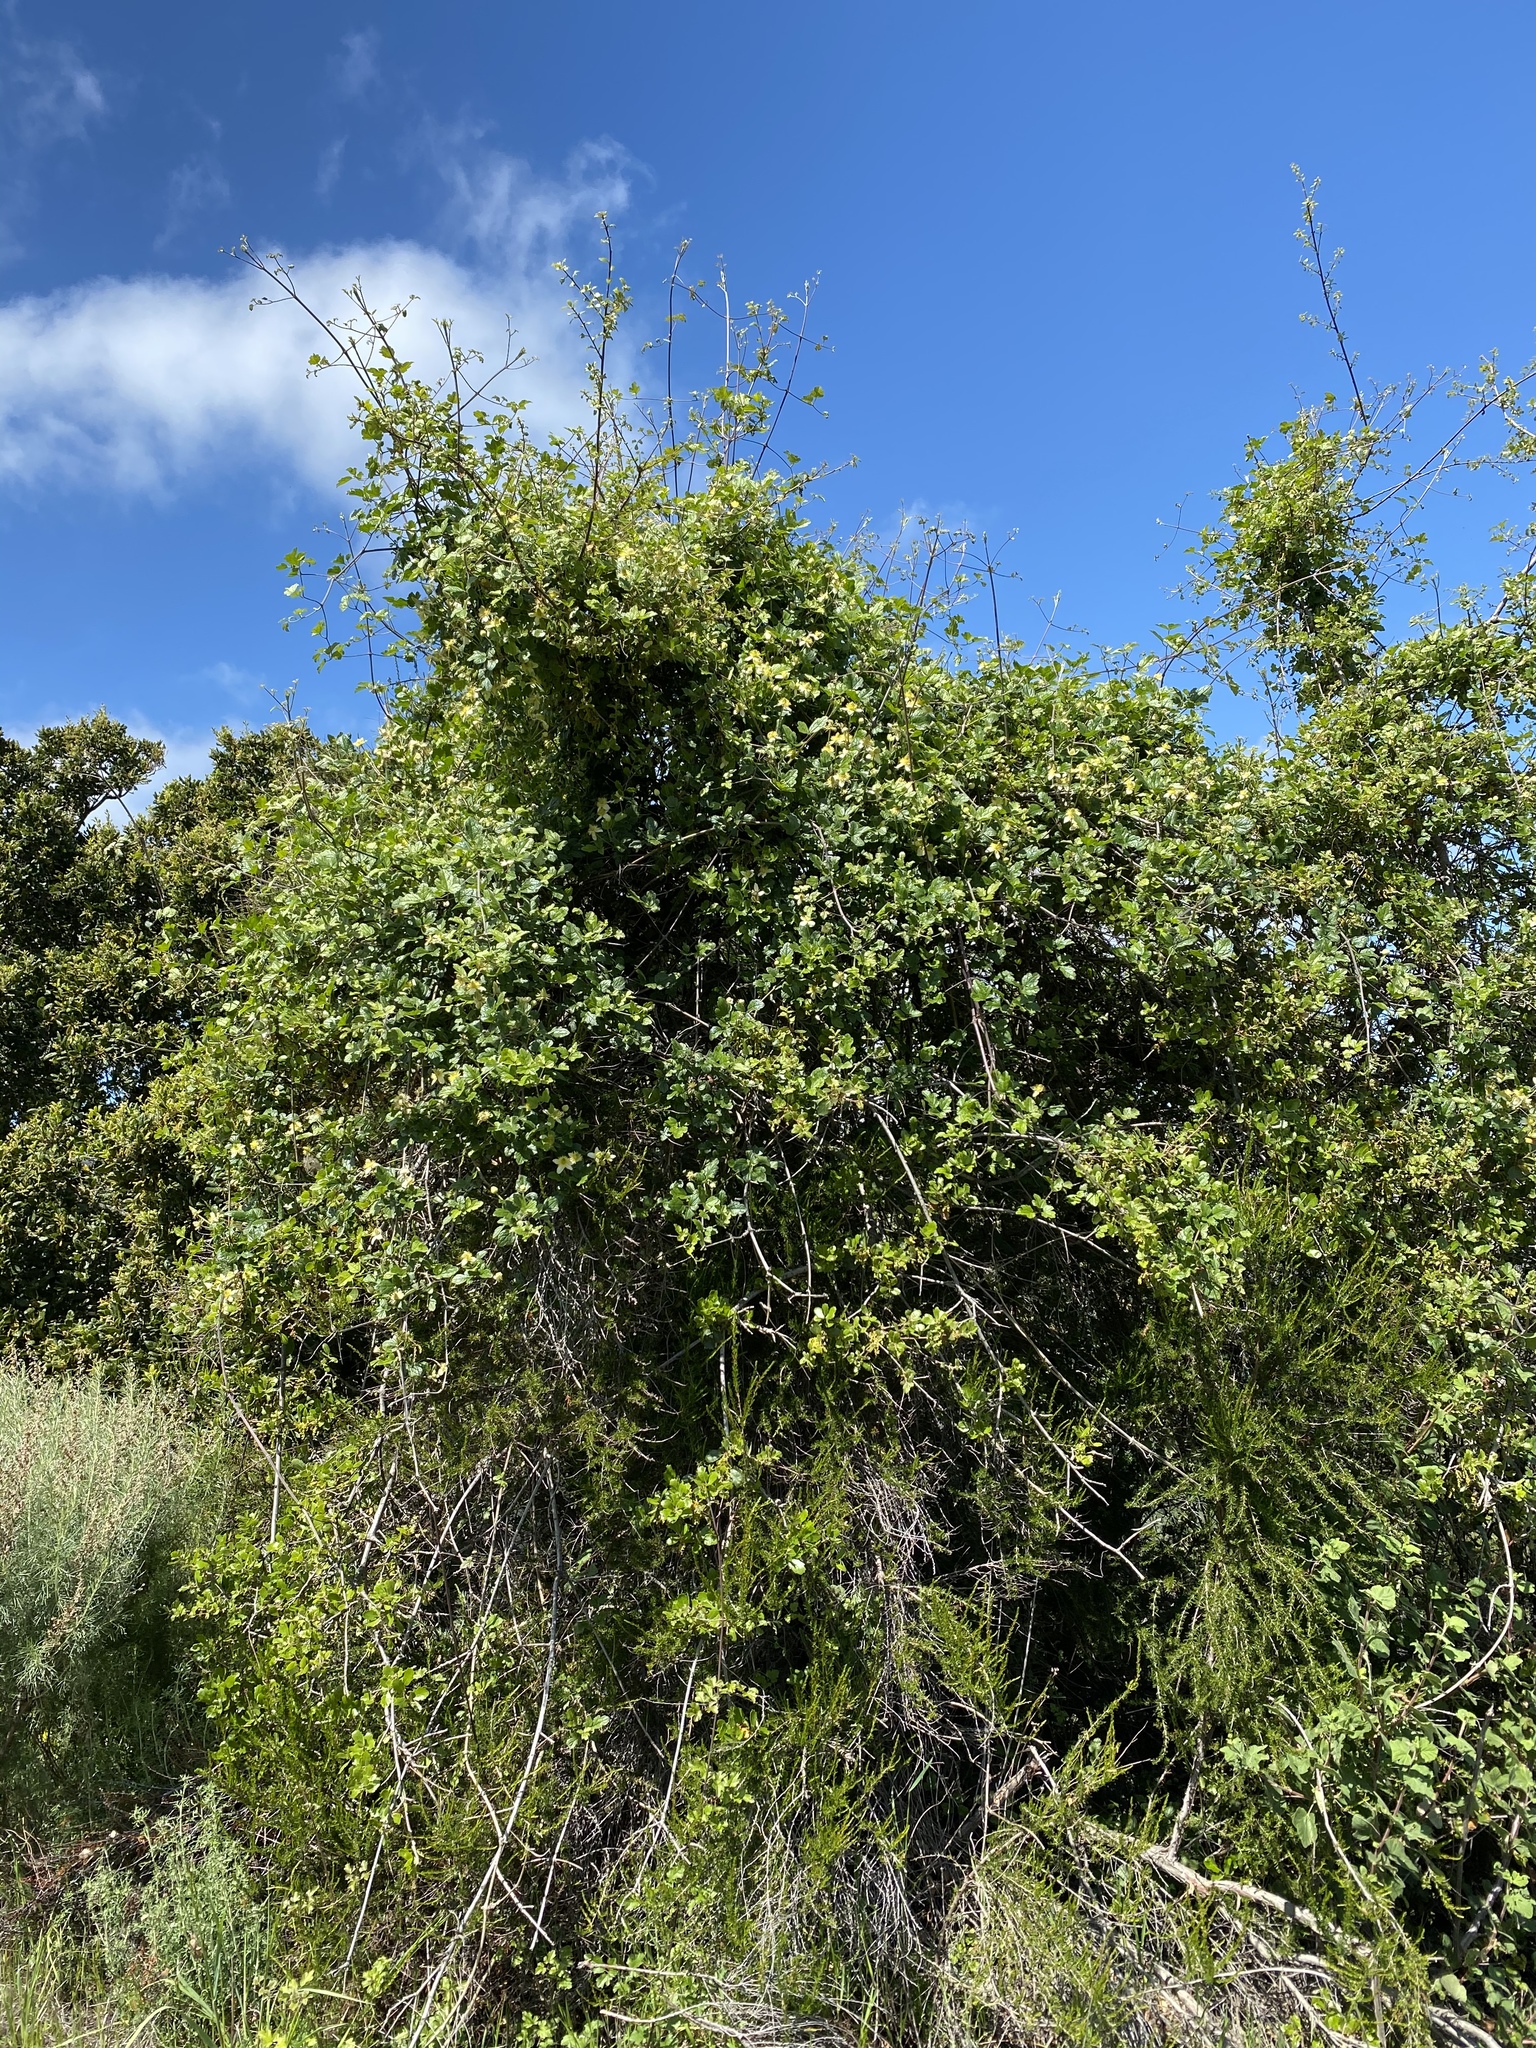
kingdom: Plantae
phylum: Tracheophyta
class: Magnoliopsida
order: Ranunculales
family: Ranunculaceae
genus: Clematis
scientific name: Clematis lasiantha
